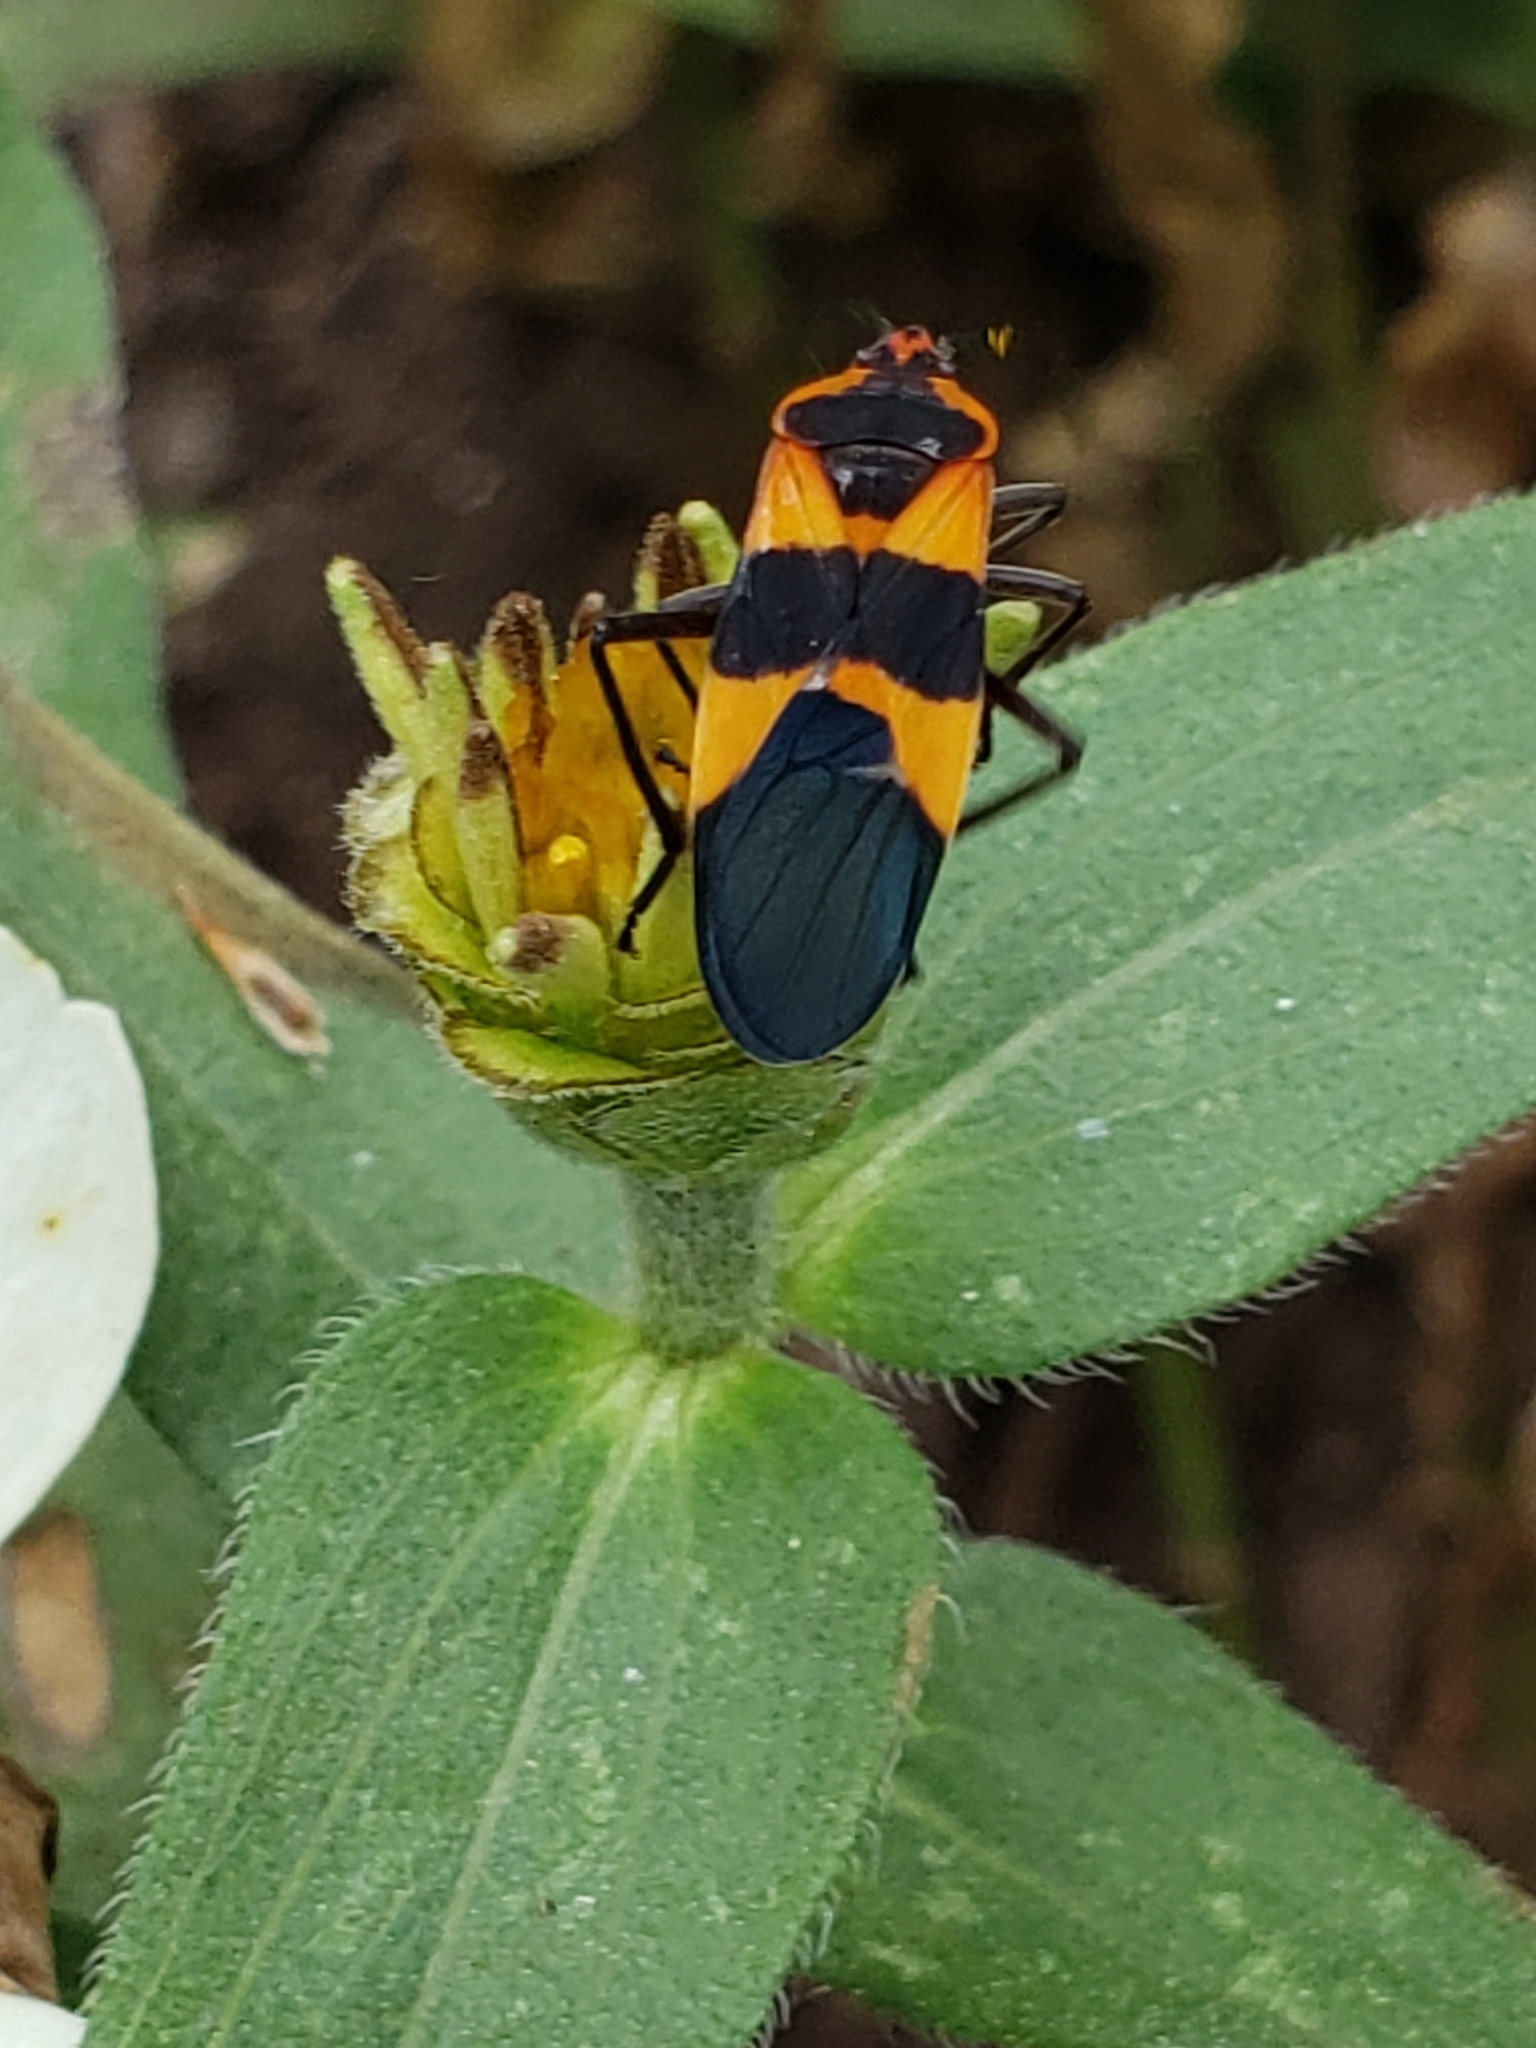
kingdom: Animalia
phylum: Arthropoda
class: Insecta
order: Hemiptera
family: Lygaeidae
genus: Oncopeltus
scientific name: Oncopeltus fasciatus
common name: Large milkweed bug
